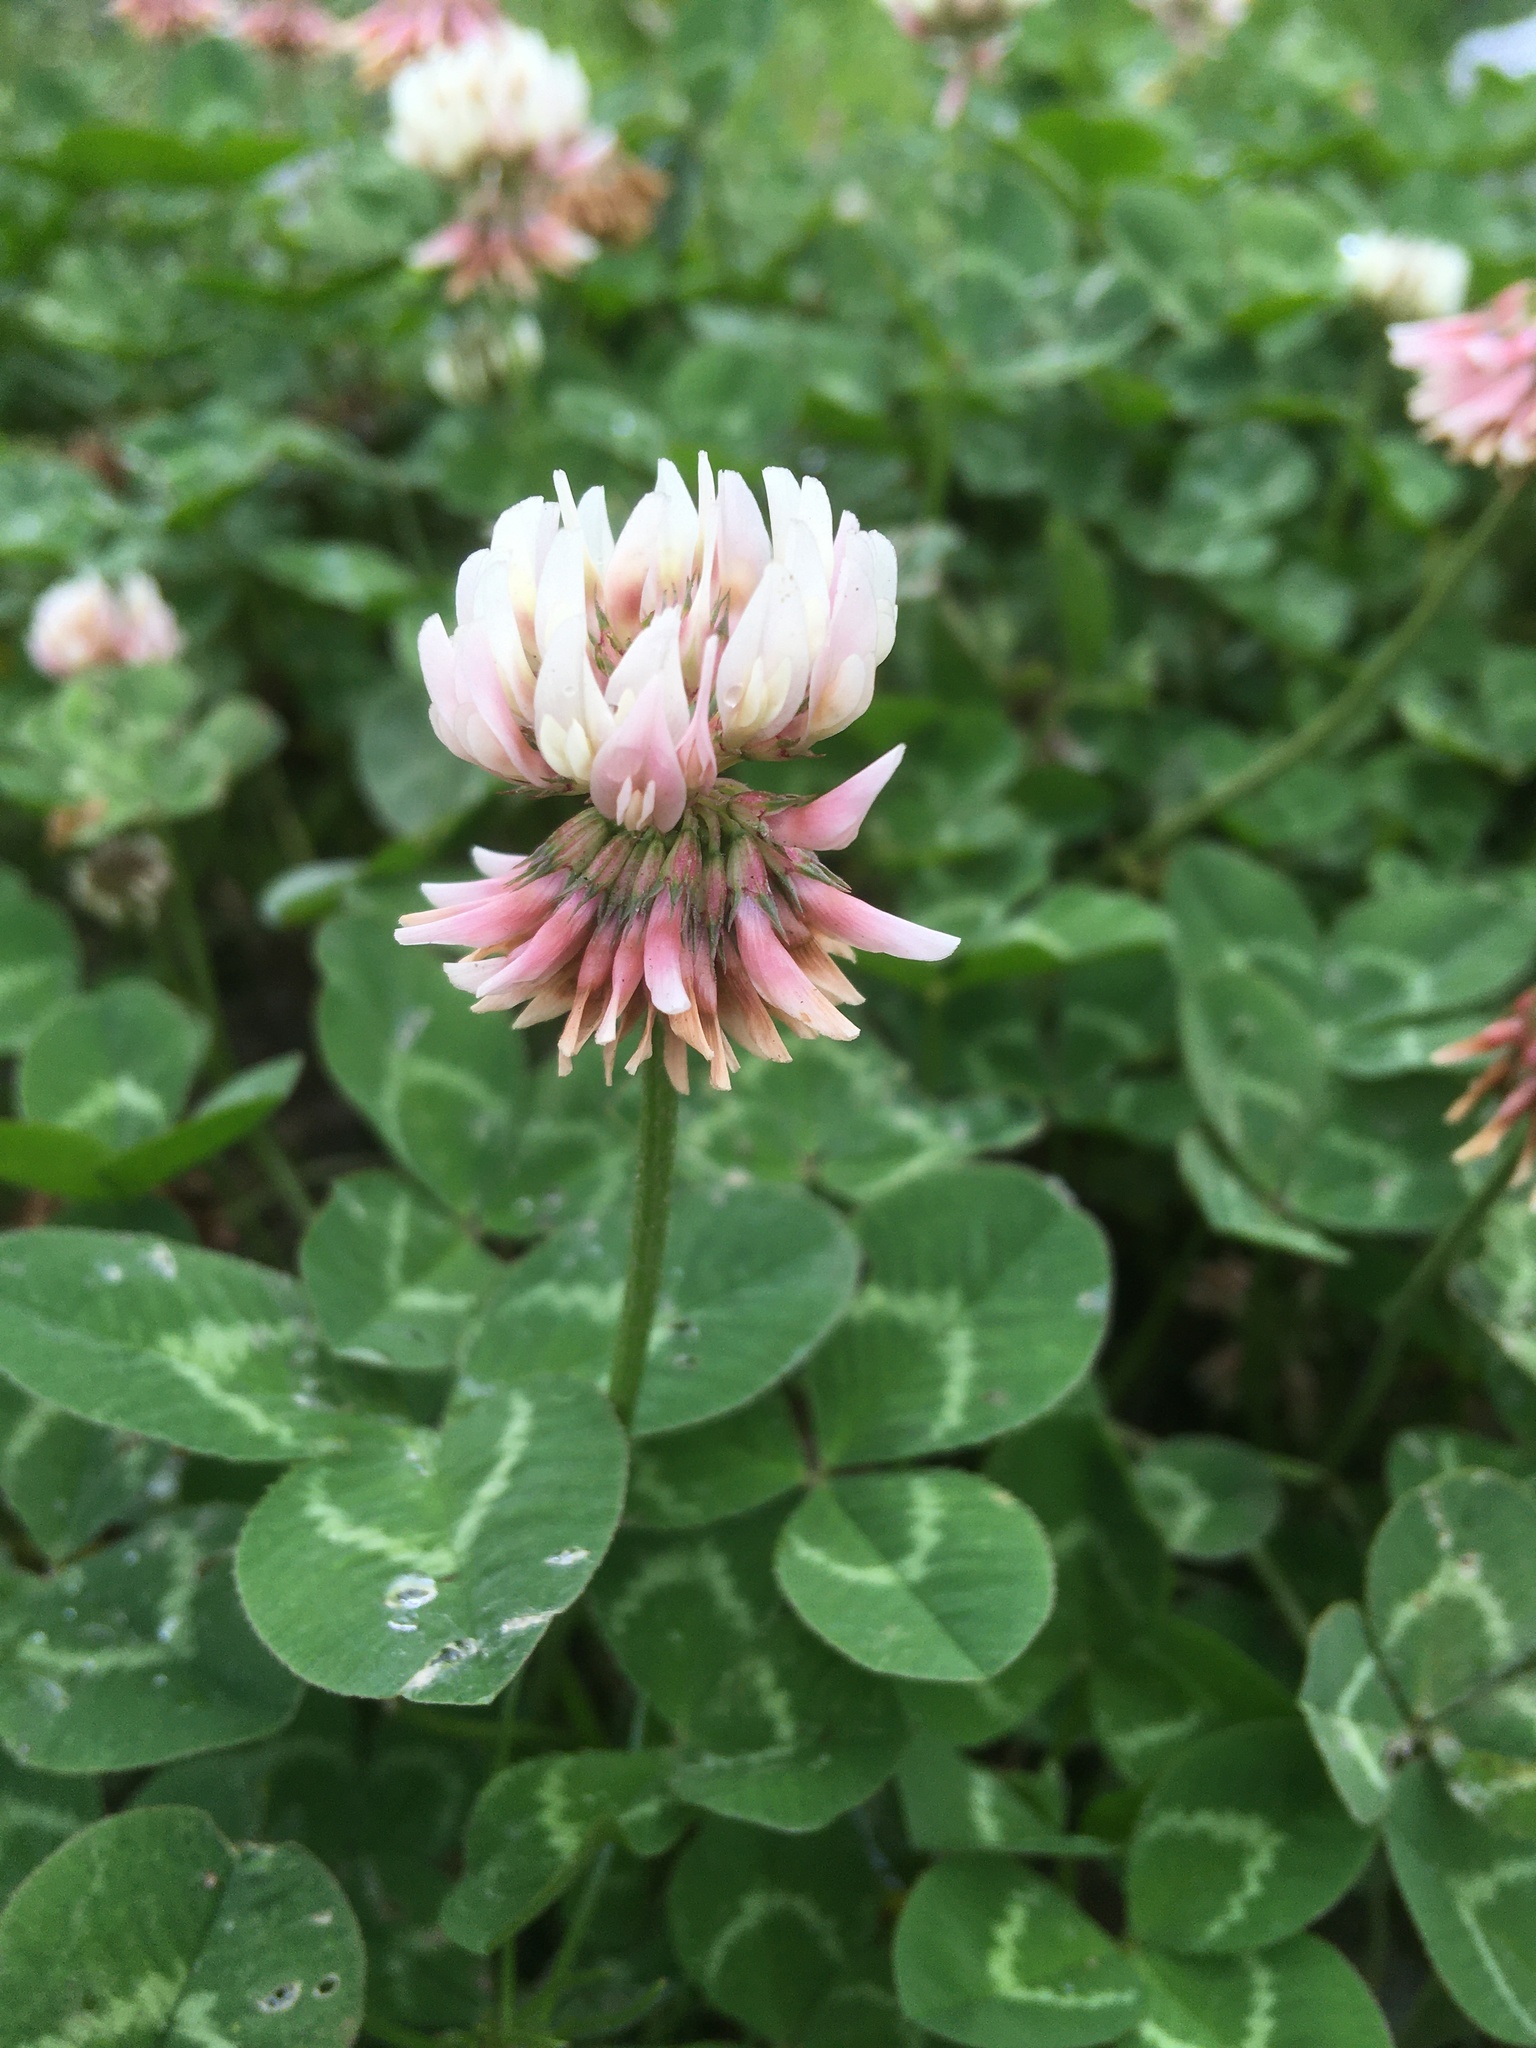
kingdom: Plantae
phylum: Tracheophyta
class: Magnoliopsida
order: Fabales
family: Fabaceae
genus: Trifolium
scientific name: Trifolium repens
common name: White clover
